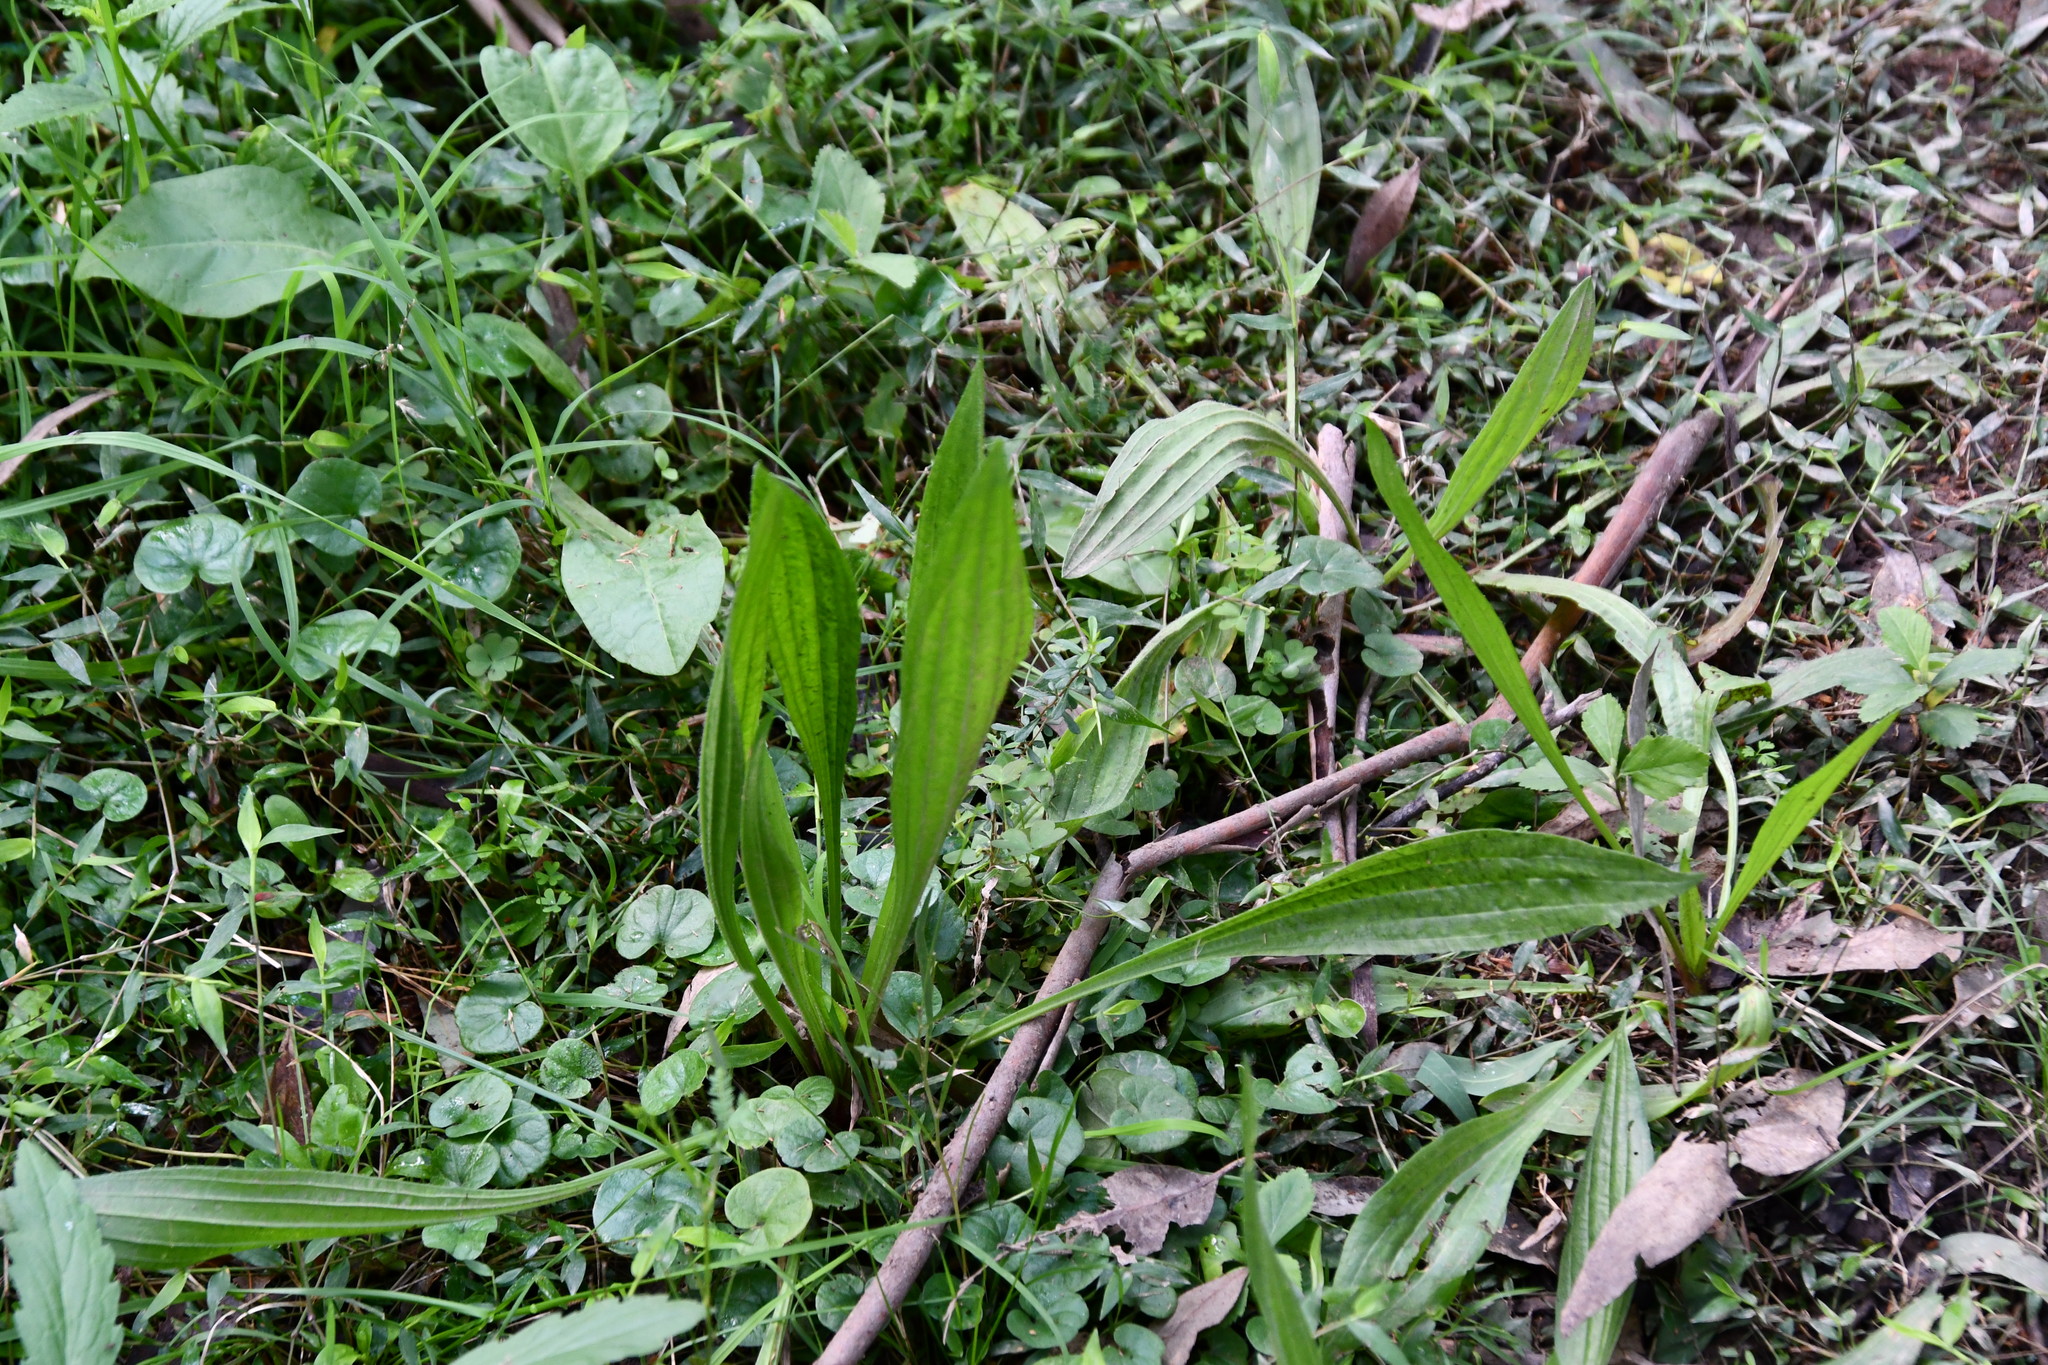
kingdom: Plantae
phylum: Tracheophyta
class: Magnoliopsida
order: Lamiales
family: Plantaginaceae
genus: Plantago
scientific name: Plantago lanceolata
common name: Ribwort plantain
